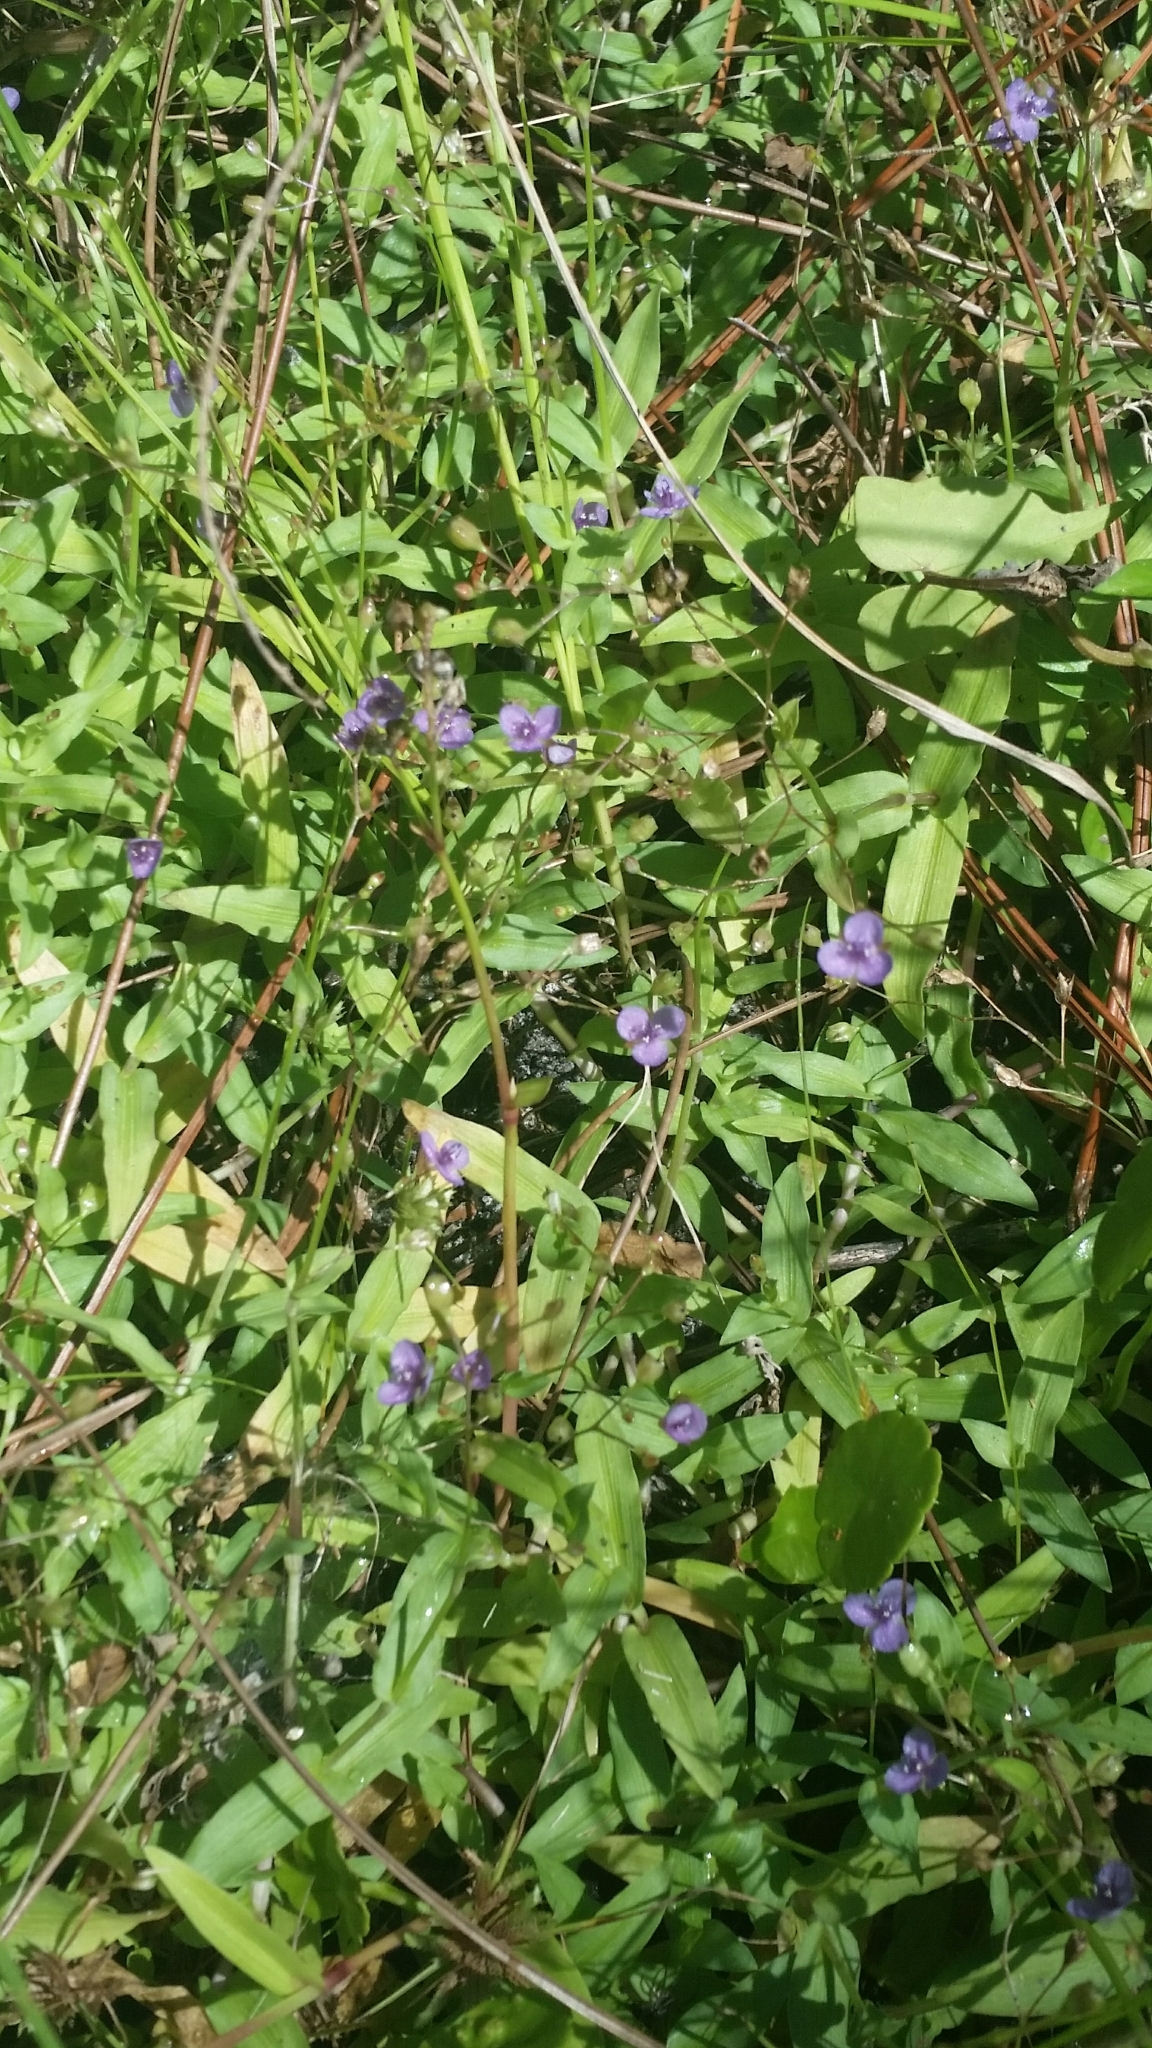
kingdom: Plantae
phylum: Tracheophyta
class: Liliopsida
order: Commelinales
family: Commelinaceae
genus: Murdannia
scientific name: Murdannia spirata
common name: Asiatic dewflower
